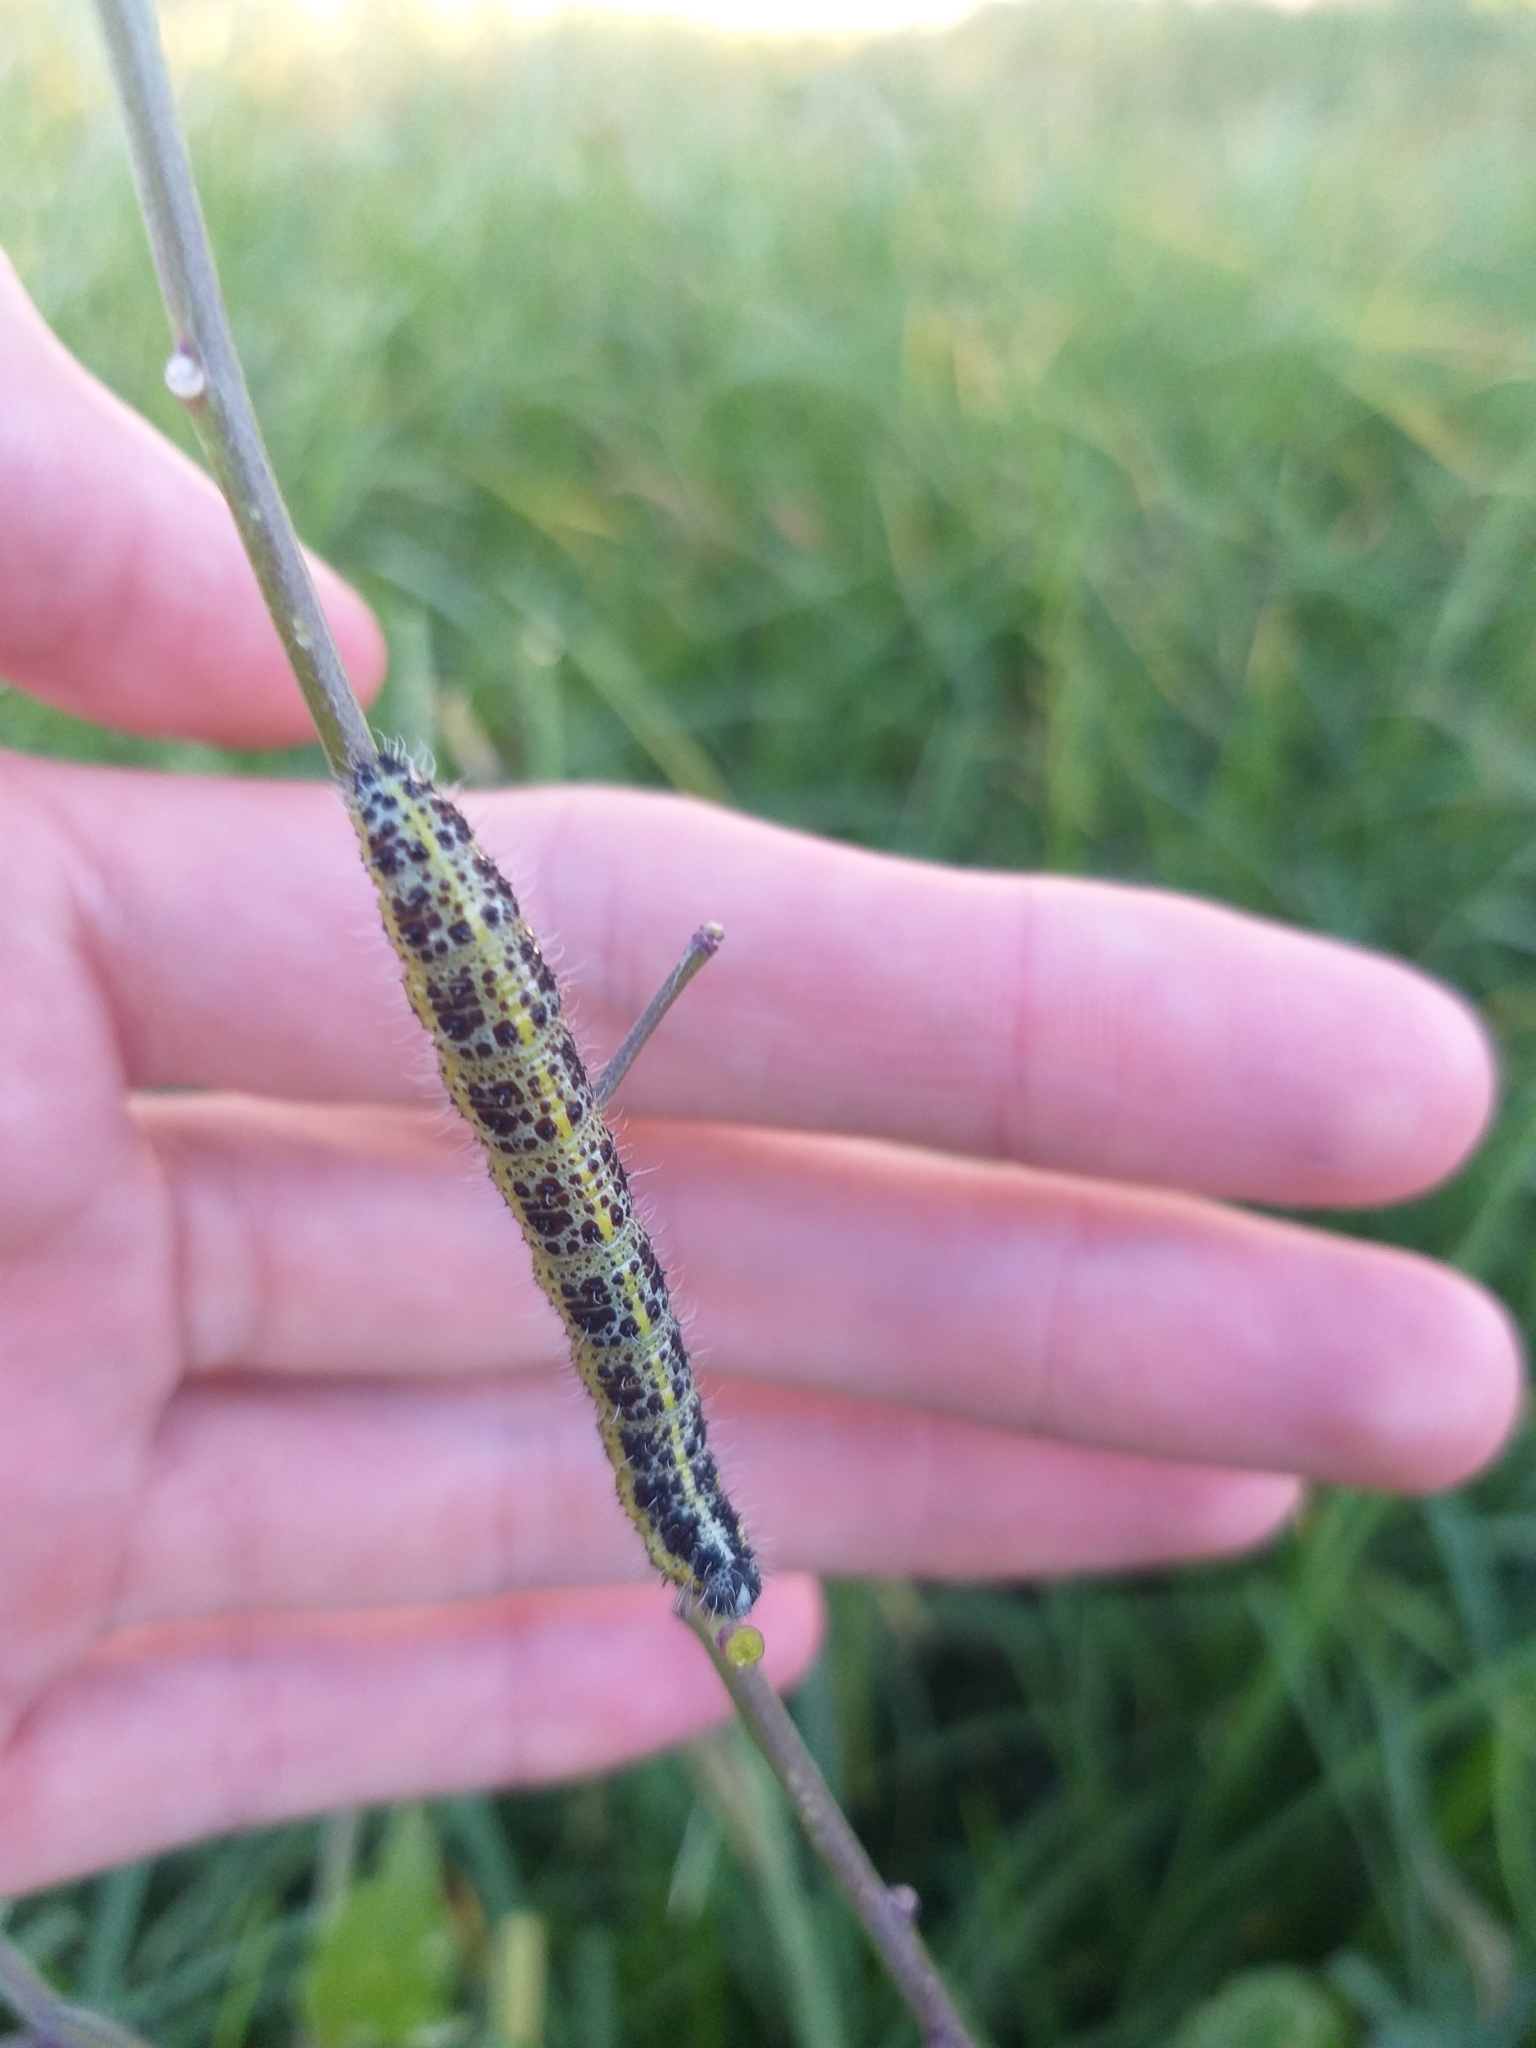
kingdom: Animalia
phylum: Arthropoda
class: Insecta
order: Lepidoptera
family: Pieridae
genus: Pieris
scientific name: Pieris brassicae
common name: Large white
